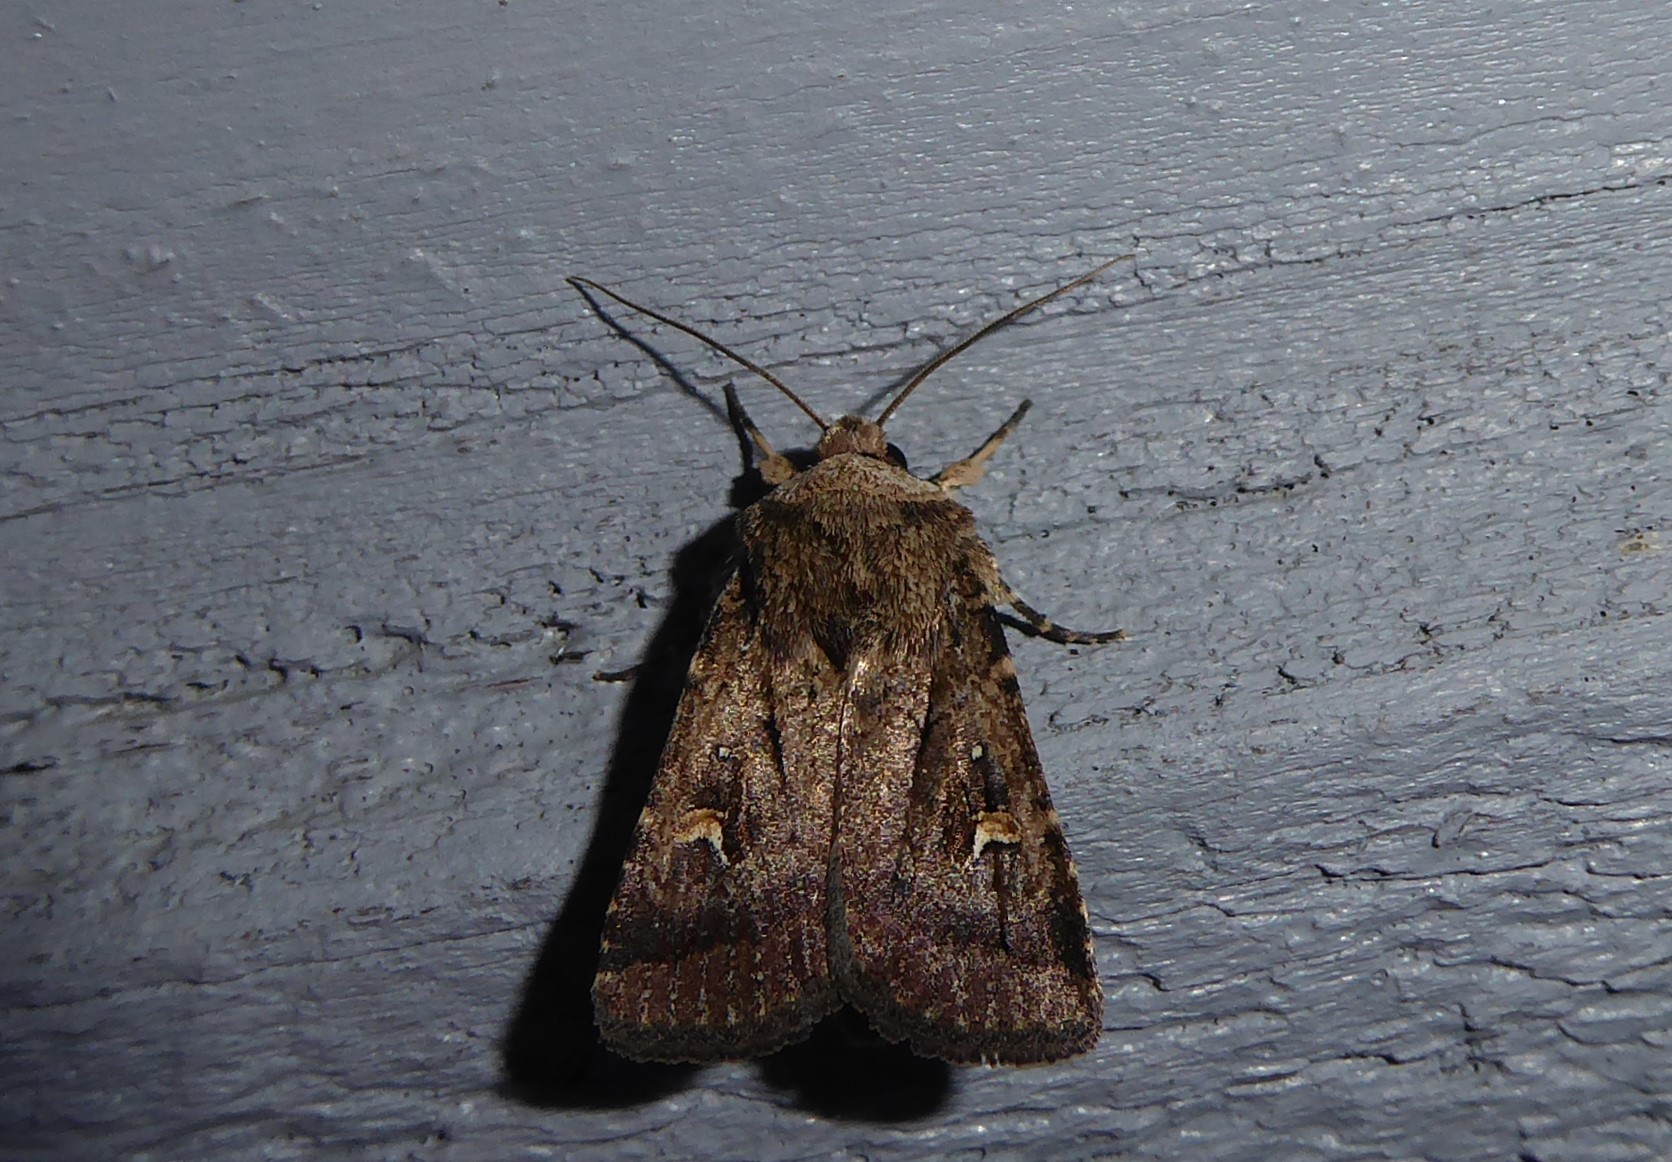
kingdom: Animalia
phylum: Arthropoda
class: Insecta
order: Lepidoptera
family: Noctuidae
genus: Proteuxoa
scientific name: Proteuxoa tetronycha
